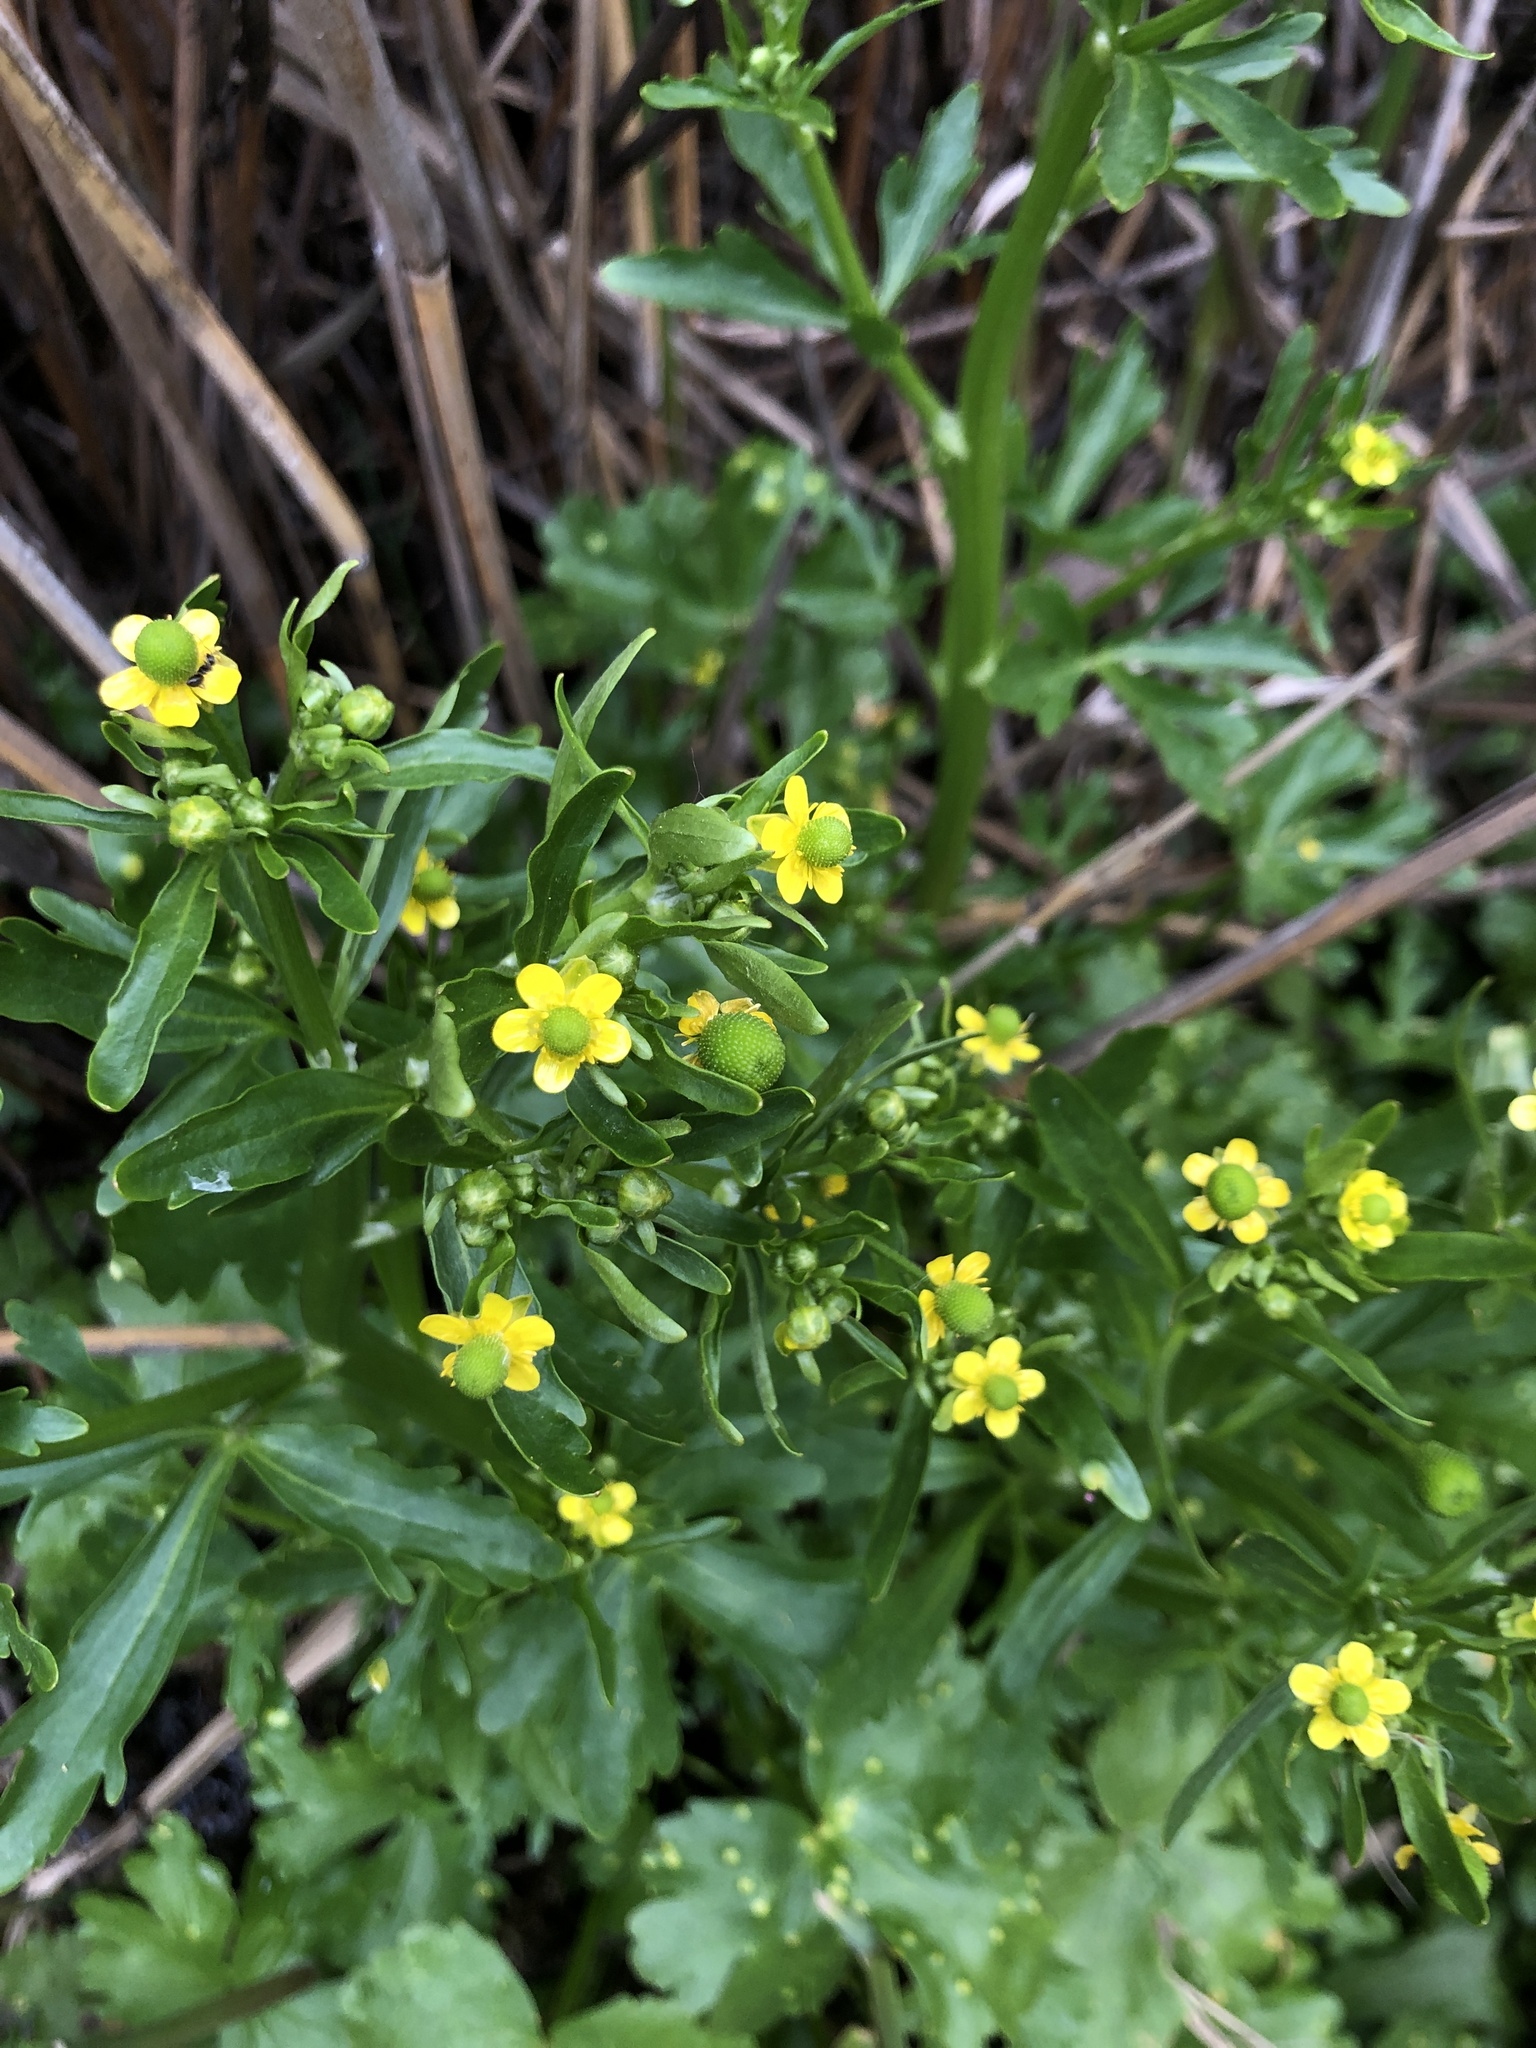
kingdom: Plantae
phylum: Tracheophyta
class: Magnoliopsida
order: Ranunculales
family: Ranunculaceae
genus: Ranunculus
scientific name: Ranunculus sceleratus
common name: Celery-leaved buttercup
